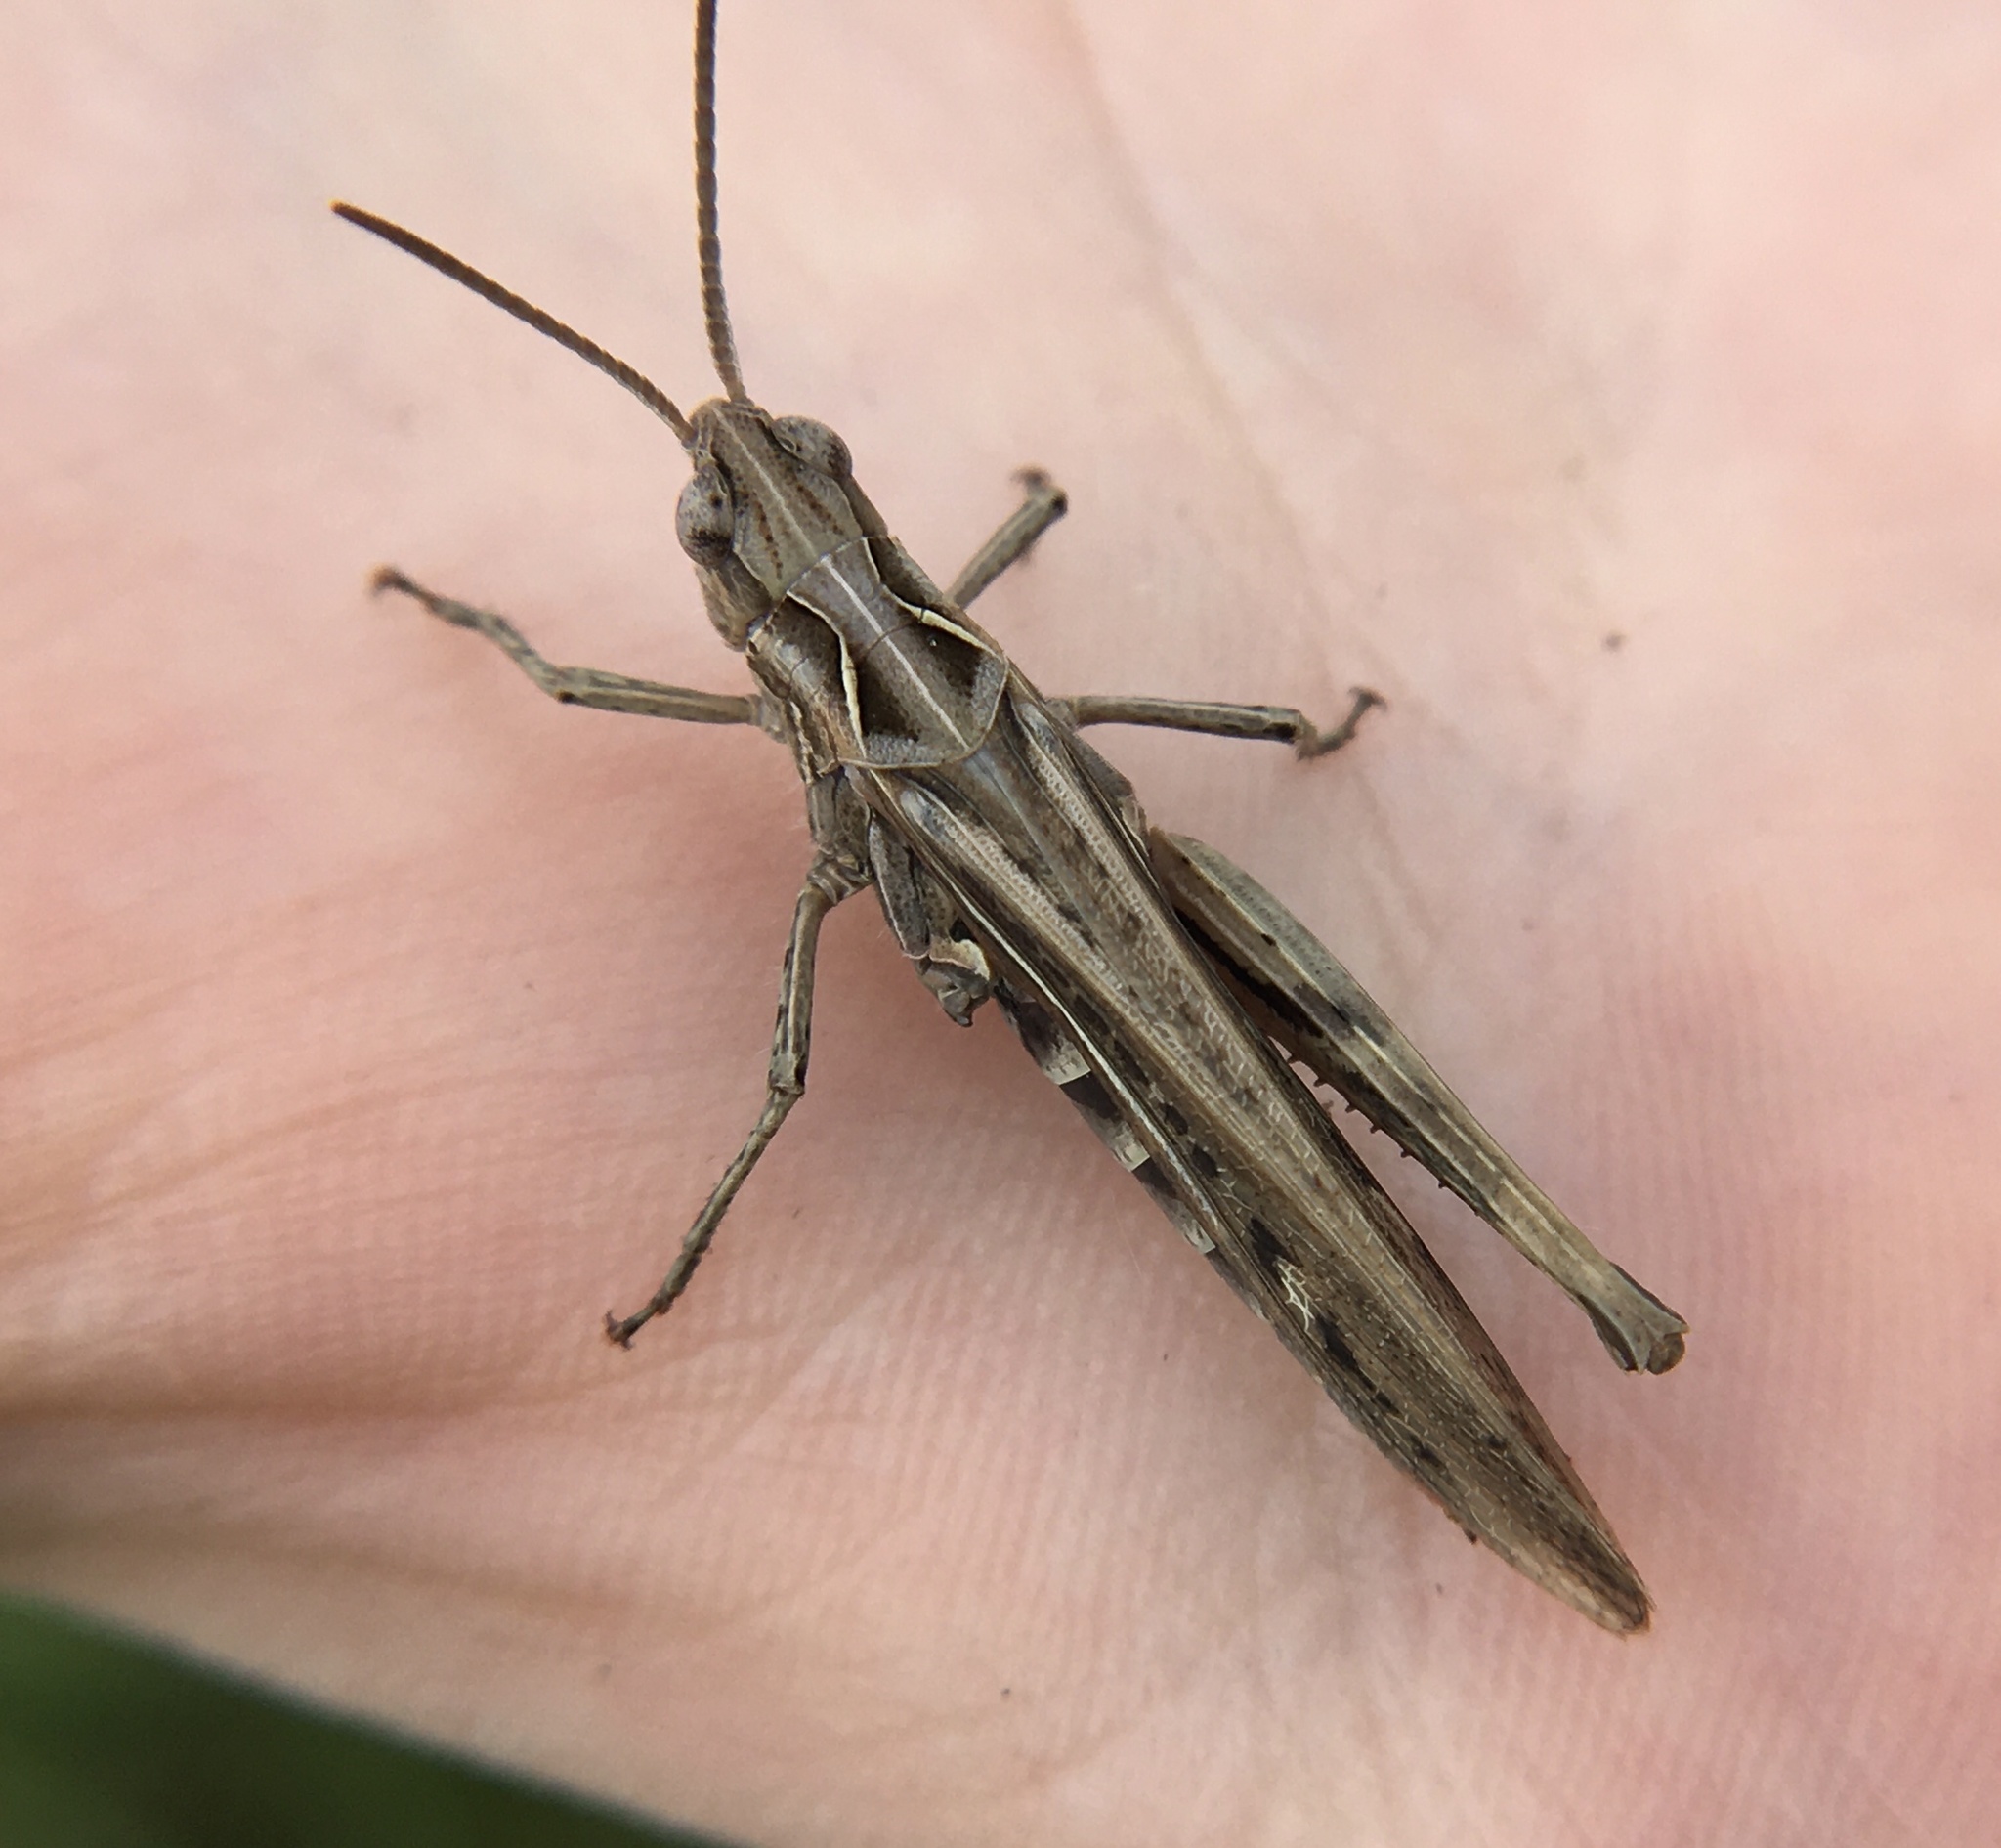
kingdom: Animalia
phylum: Arthropoda
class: Insecta
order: Orthoptera
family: Acrididae
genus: Chorthippus
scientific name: Chorthippus brunneus
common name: Field grasshopper
